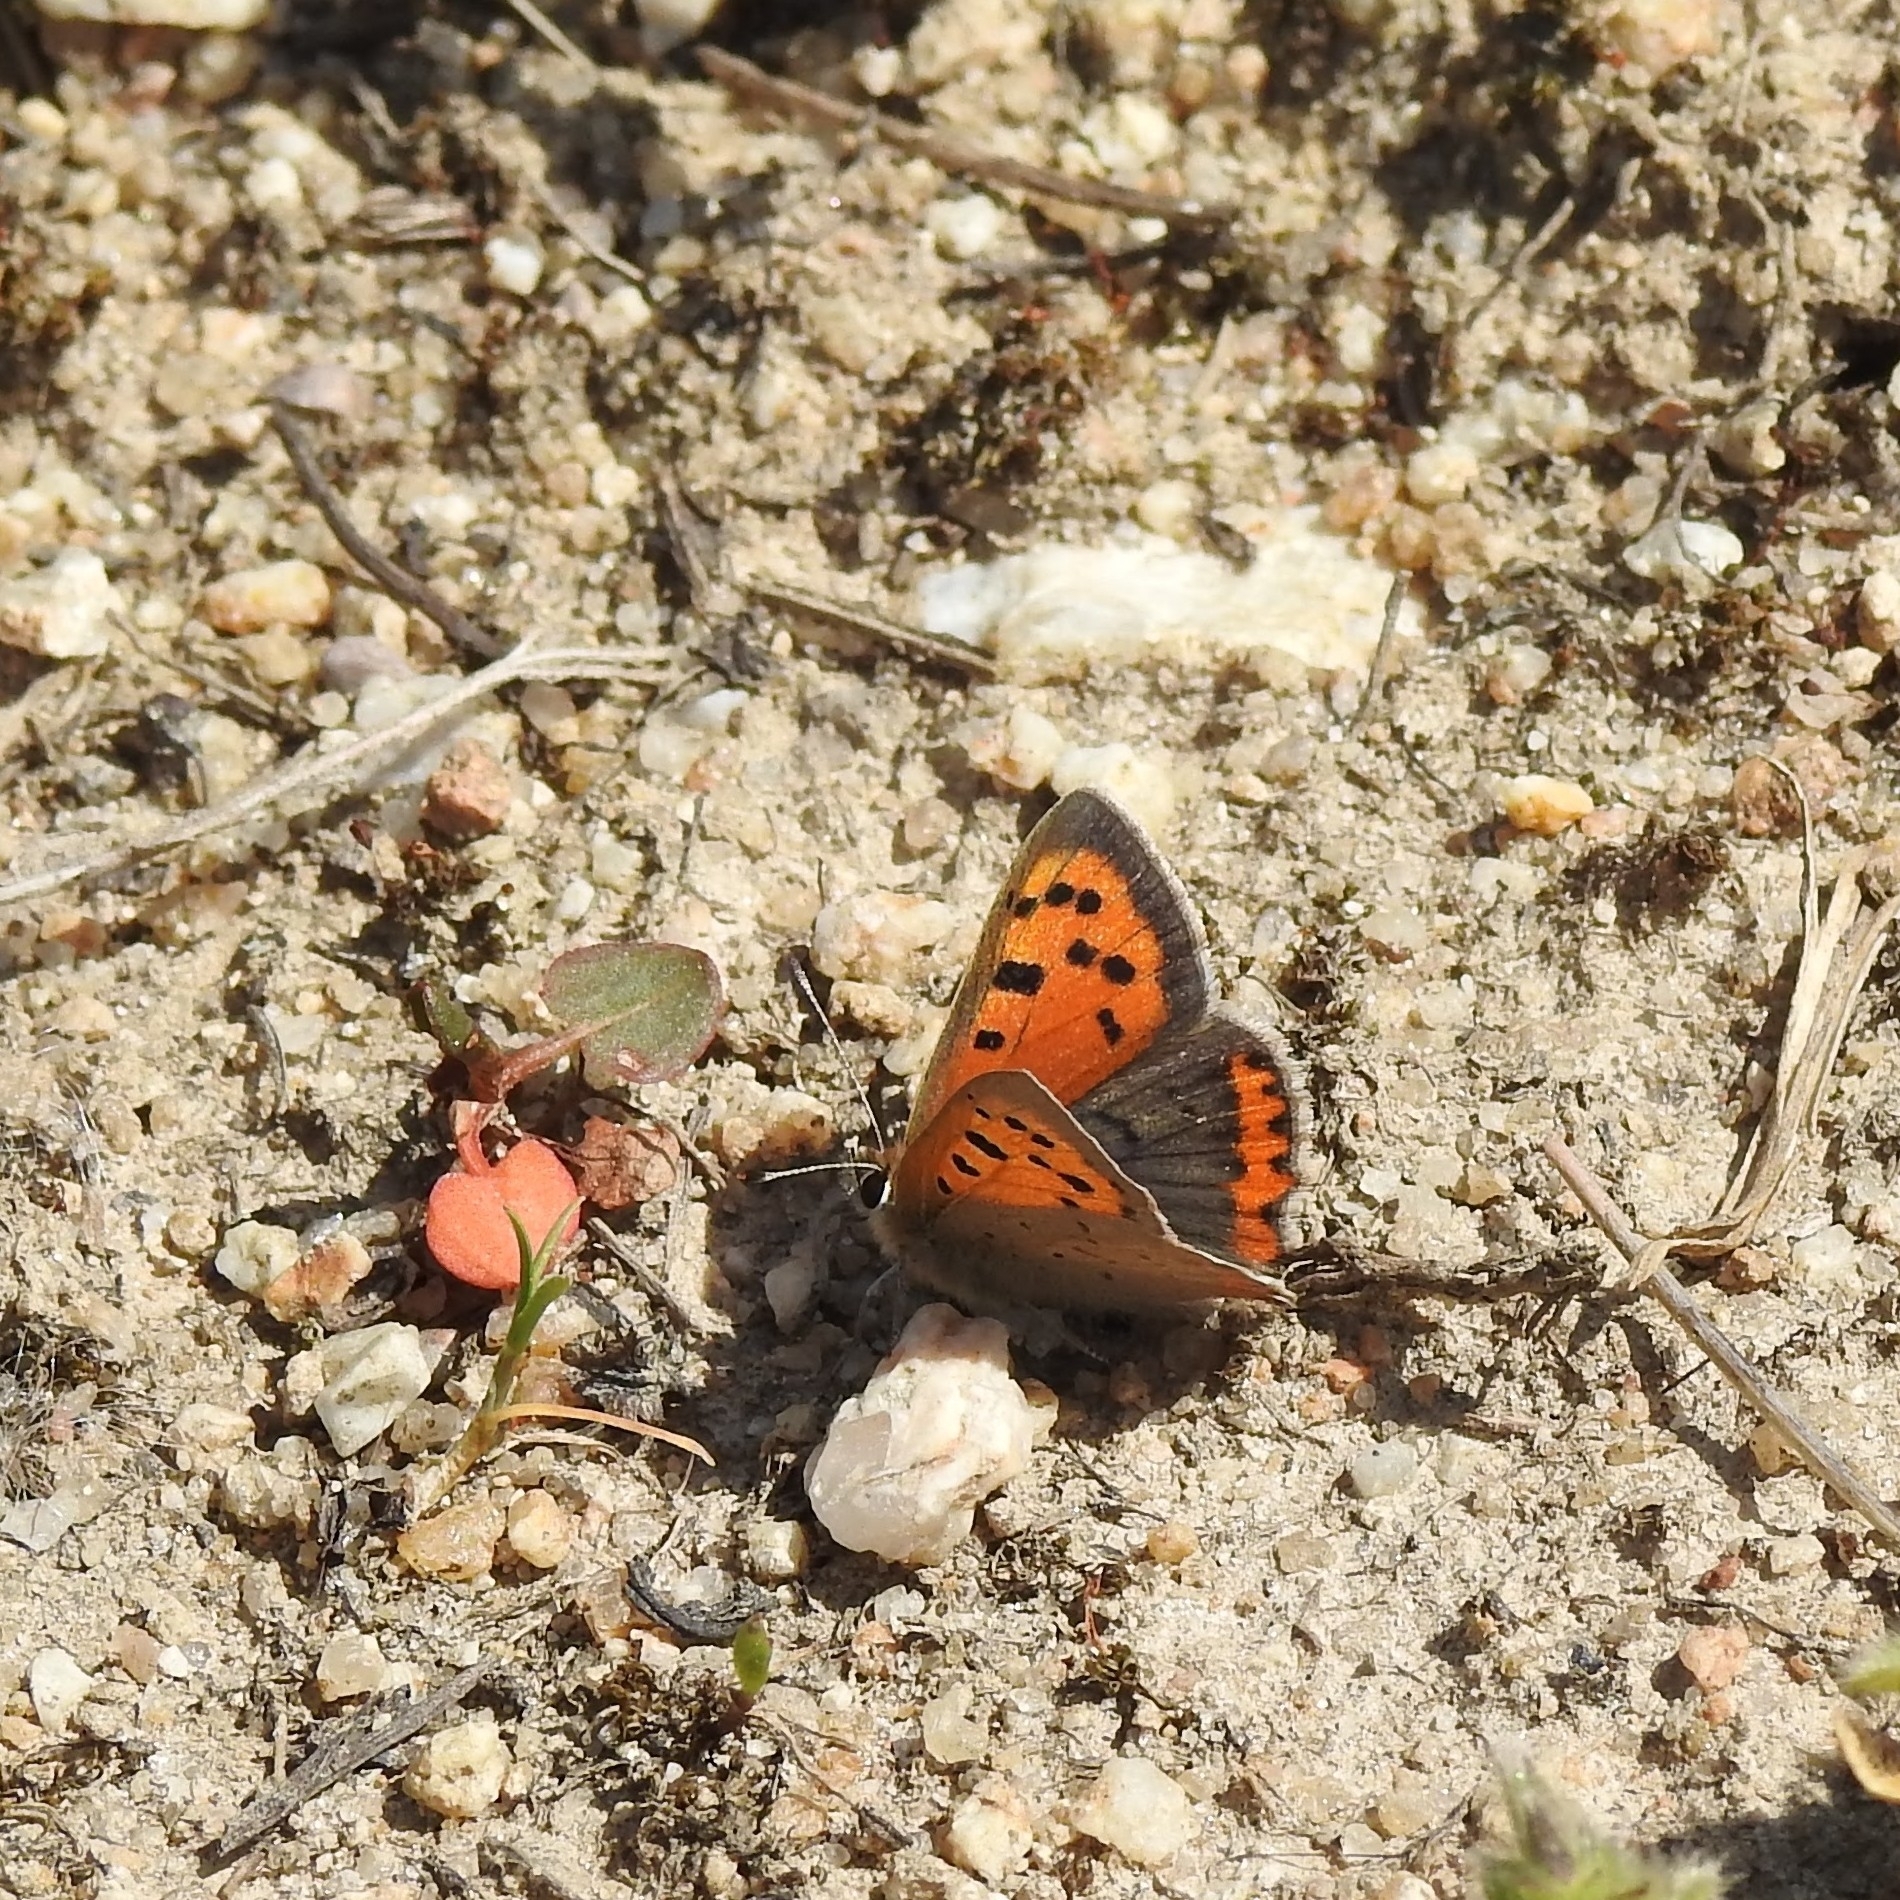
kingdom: Animalia
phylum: Arthropoda
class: Insecta
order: Lepidoptera
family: Lycaenidae
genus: Lycaena
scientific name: Lycaena phlaeas
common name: Small copper
